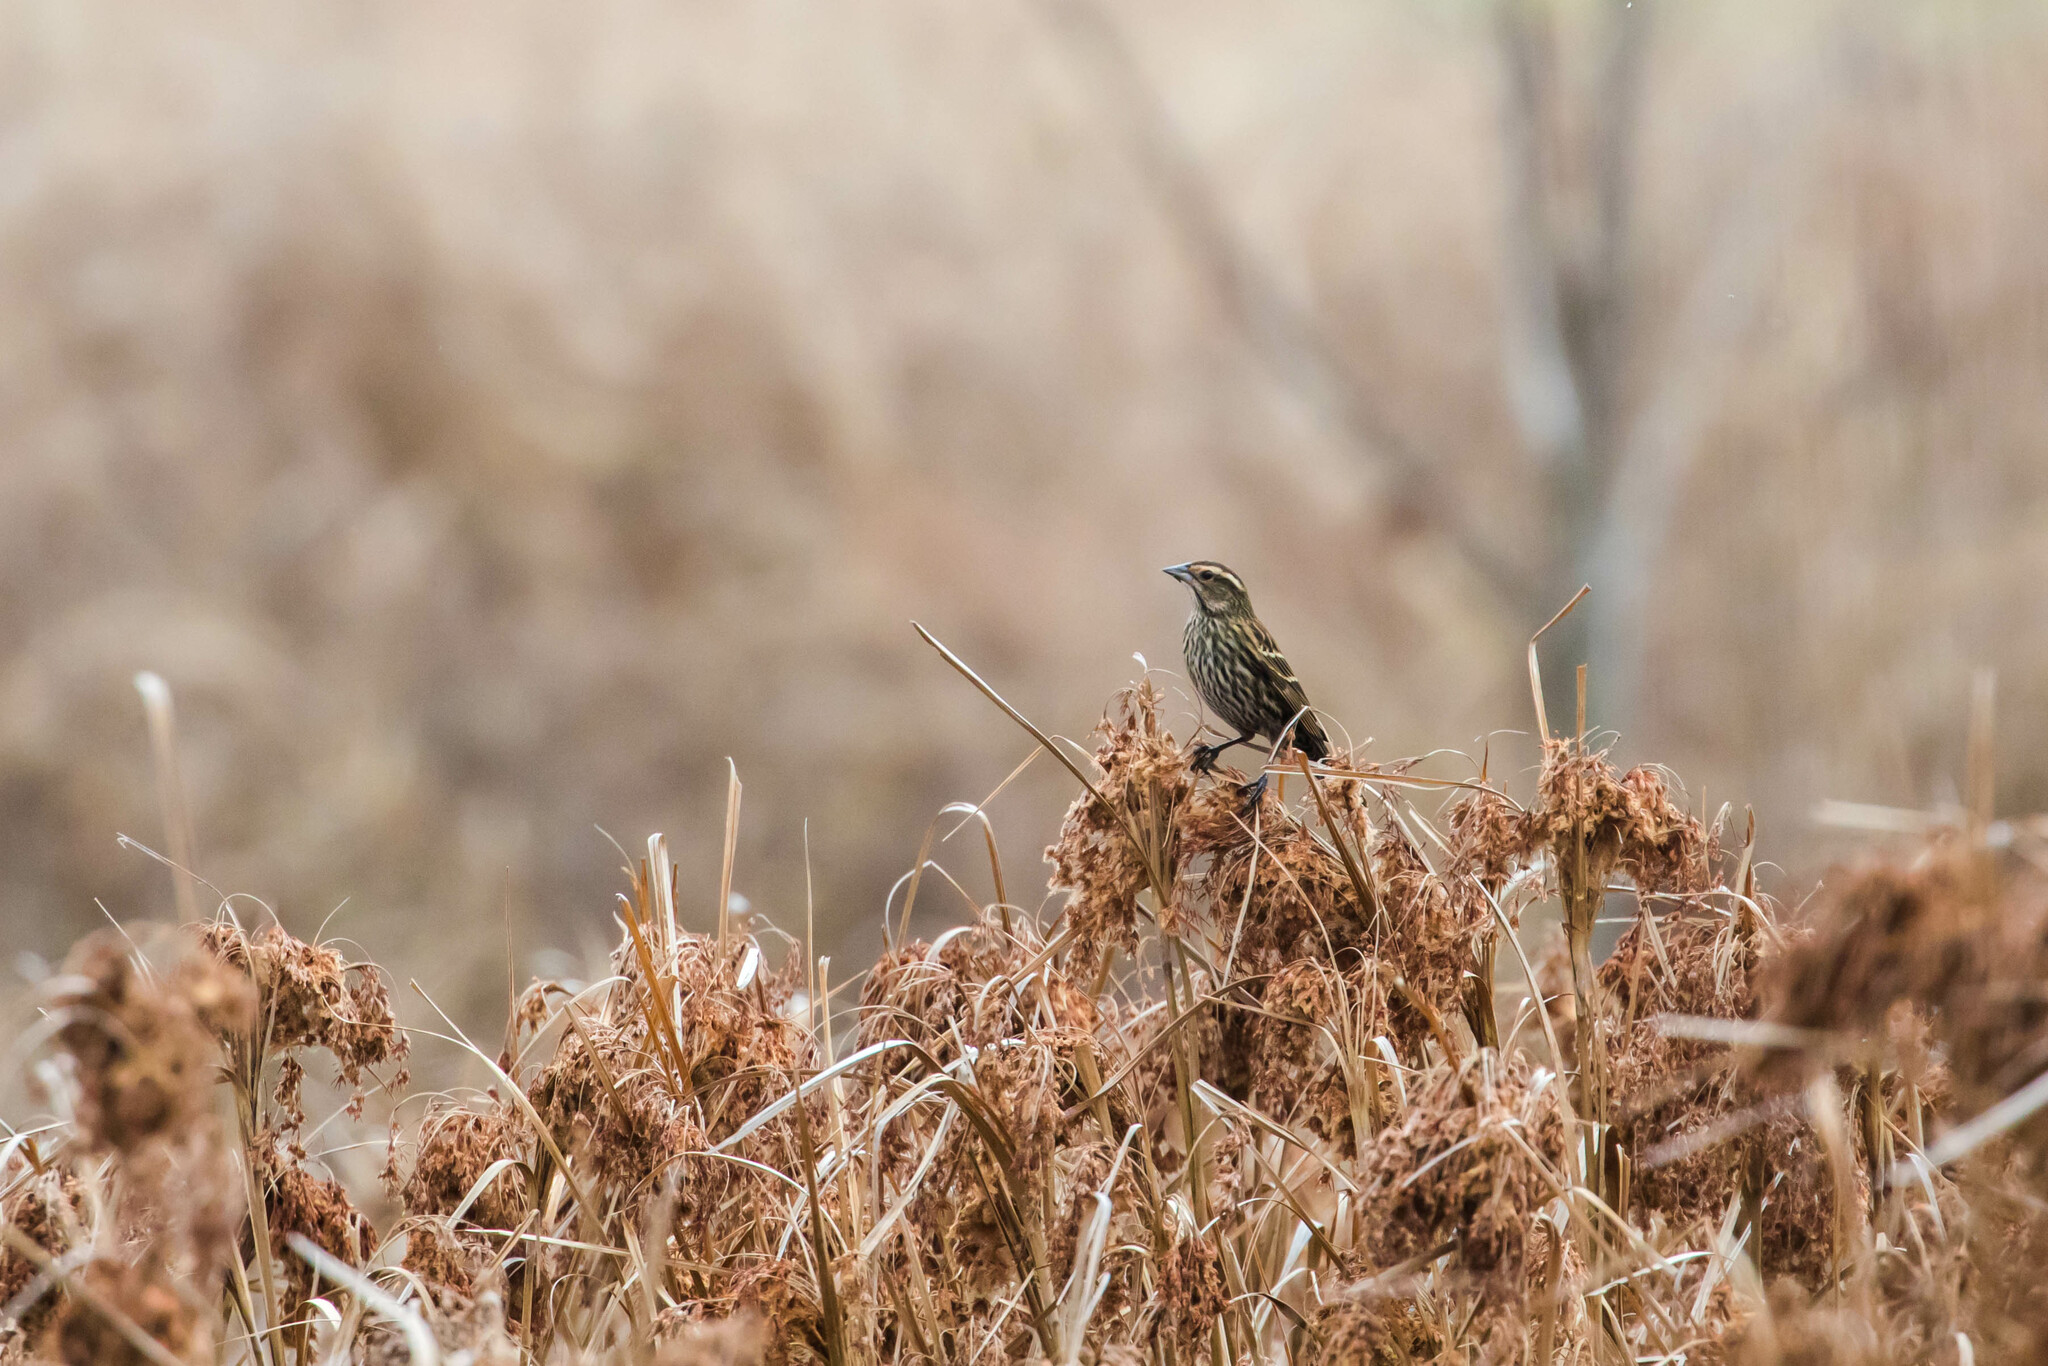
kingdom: Animalia
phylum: Chordata
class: Aves
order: Passeriformes
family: Icteridae
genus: Agelaius
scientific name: Agelaius phoeniceus
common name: Red-winged blackbird
